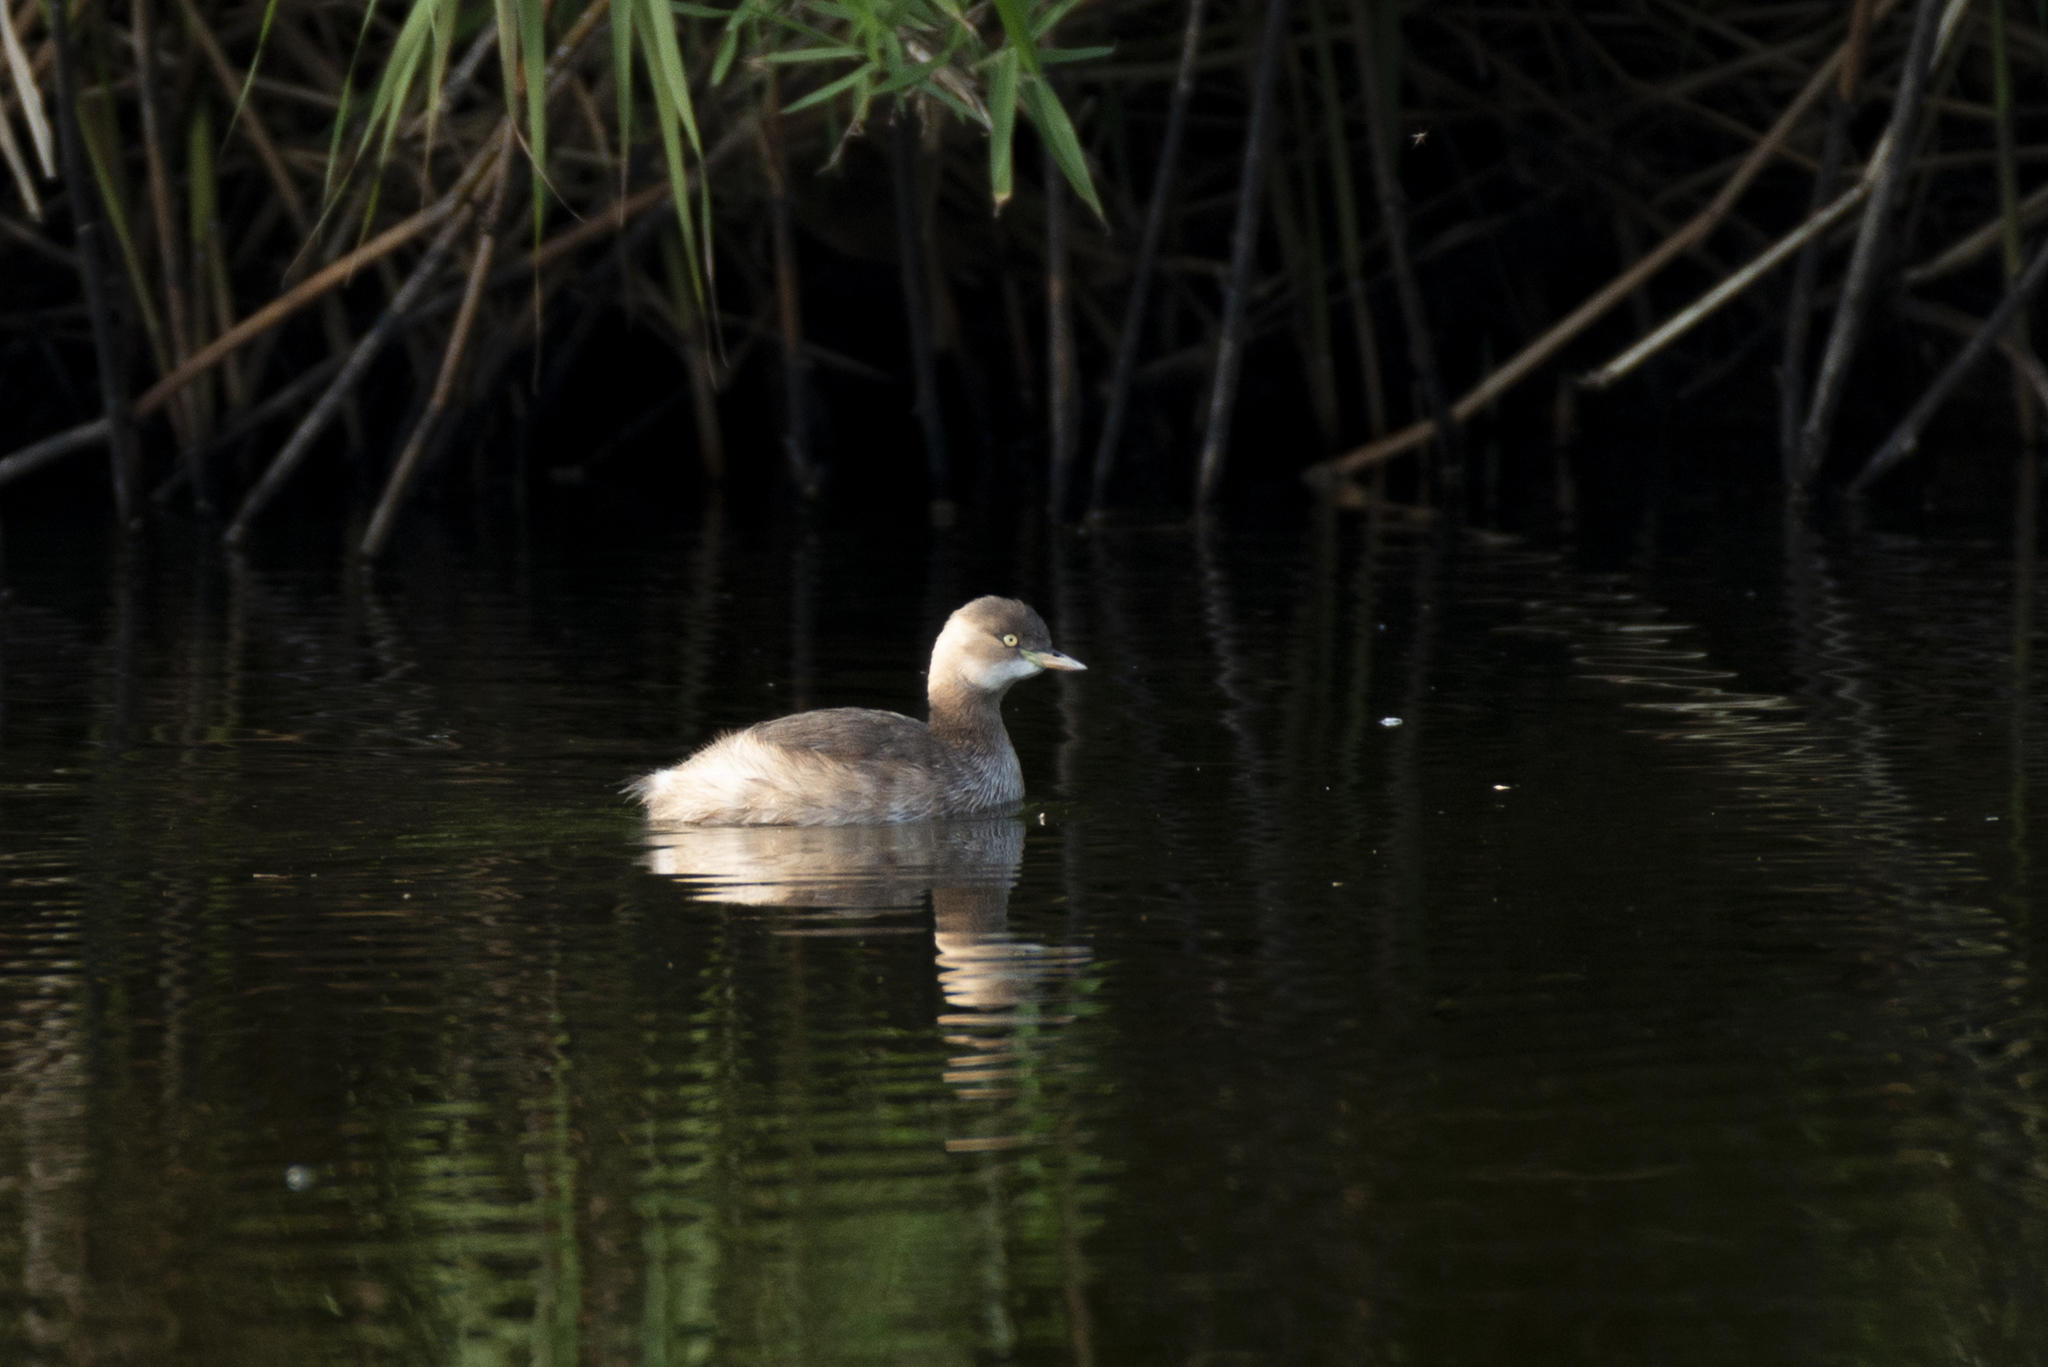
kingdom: Animalia
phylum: Chordata
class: Aves
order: Podicipediformes
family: Podicipedidae
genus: Tachybaptus
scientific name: Tachybaptus ruficollis
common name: Little grebe
